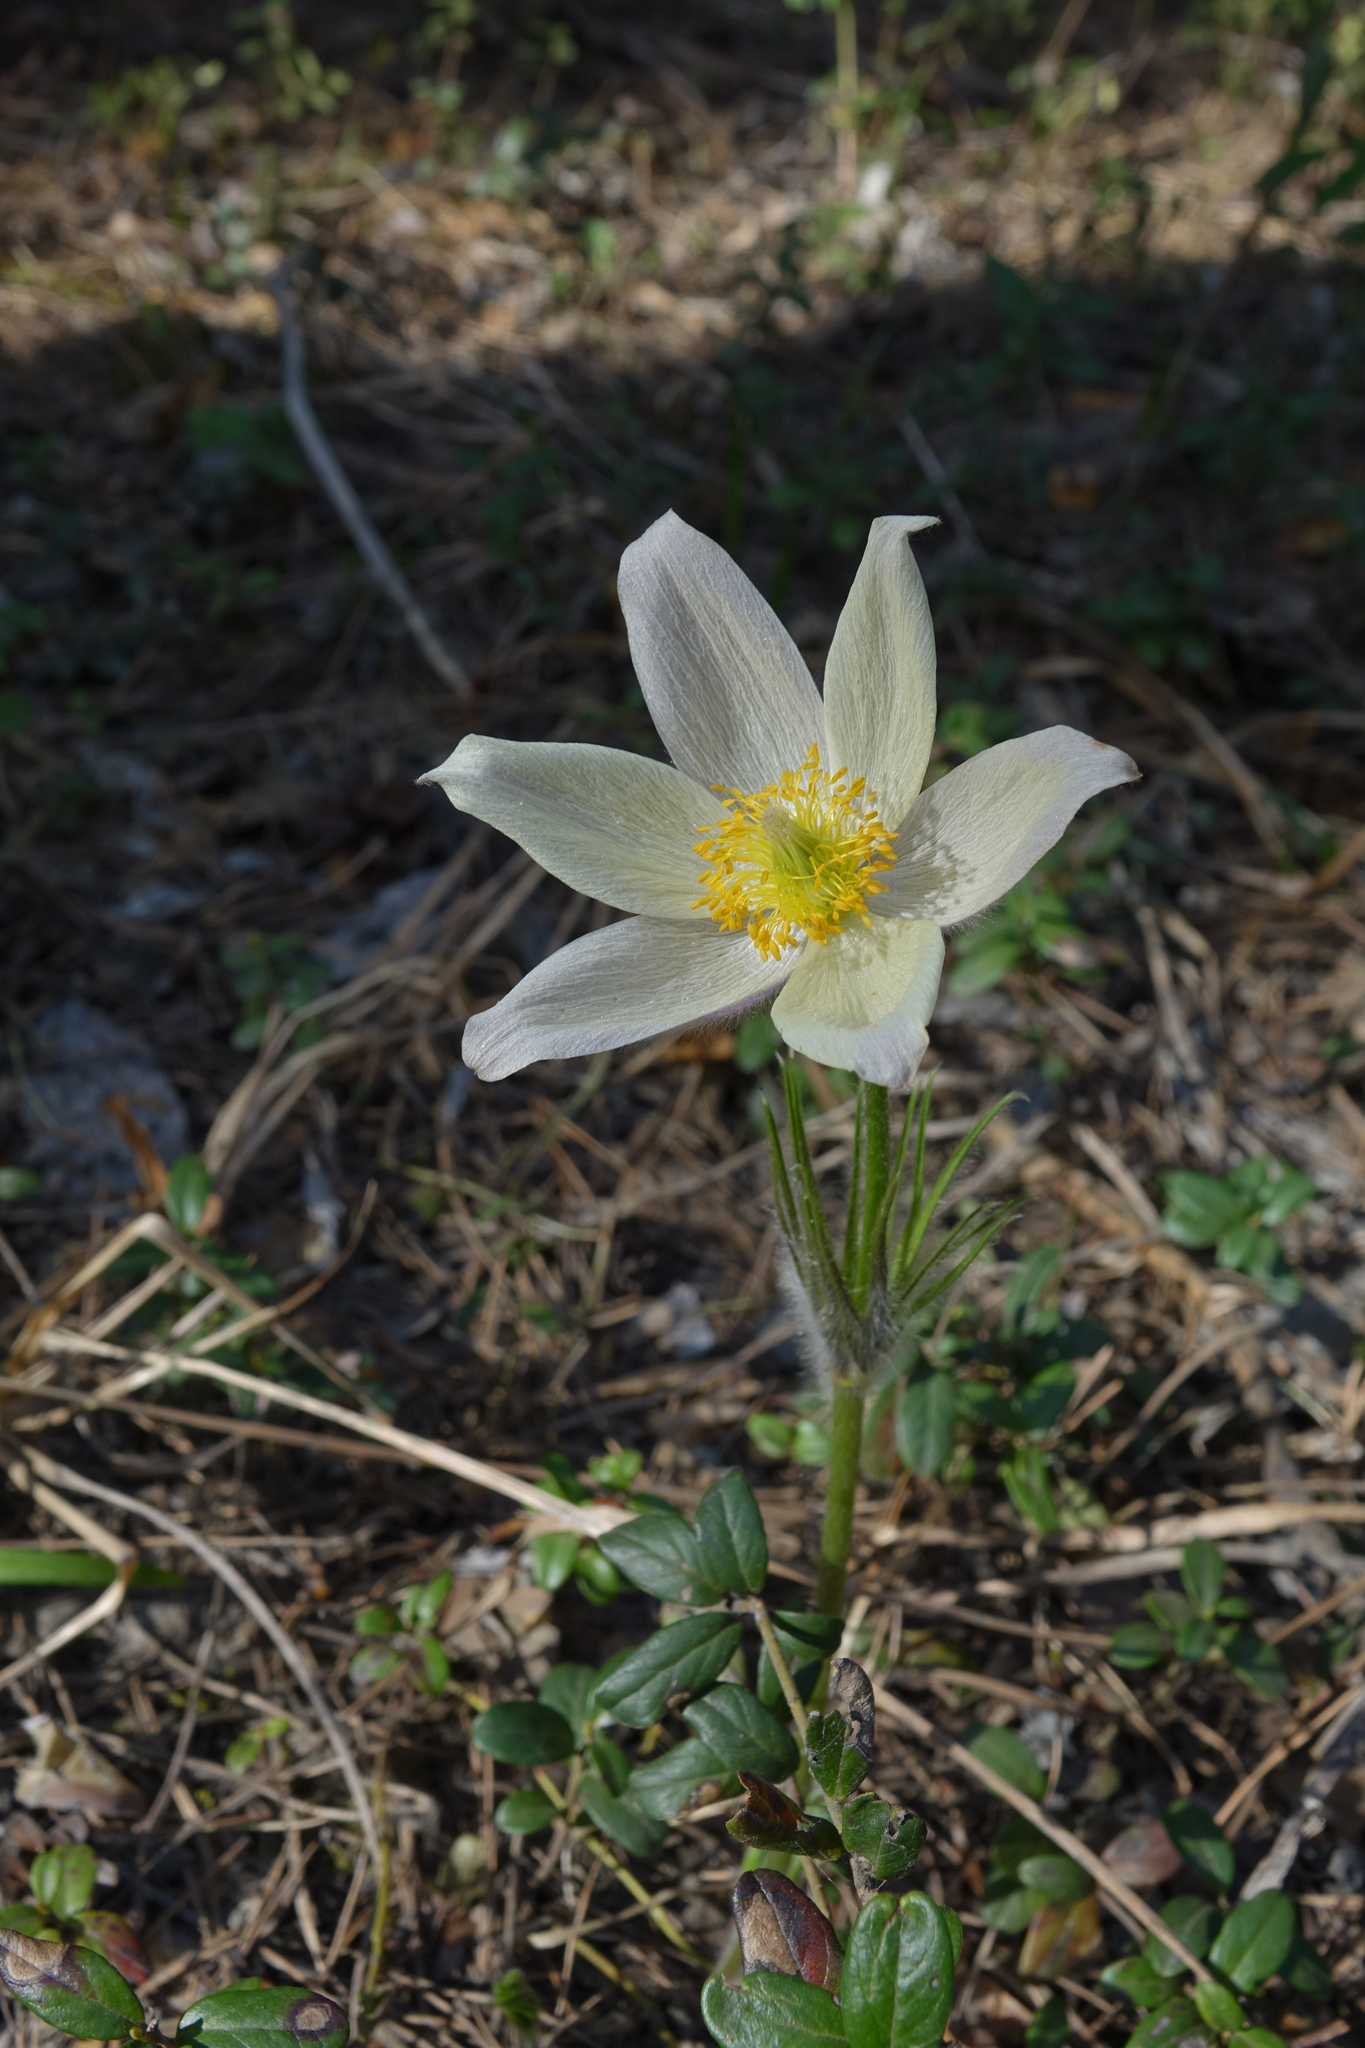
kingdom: Plantae
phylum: Tracheophyta
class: Magnoliopsida
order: Ranunculales
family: Ranunculaceae
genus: Pulsatilla
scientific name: Pulsatilla patens
